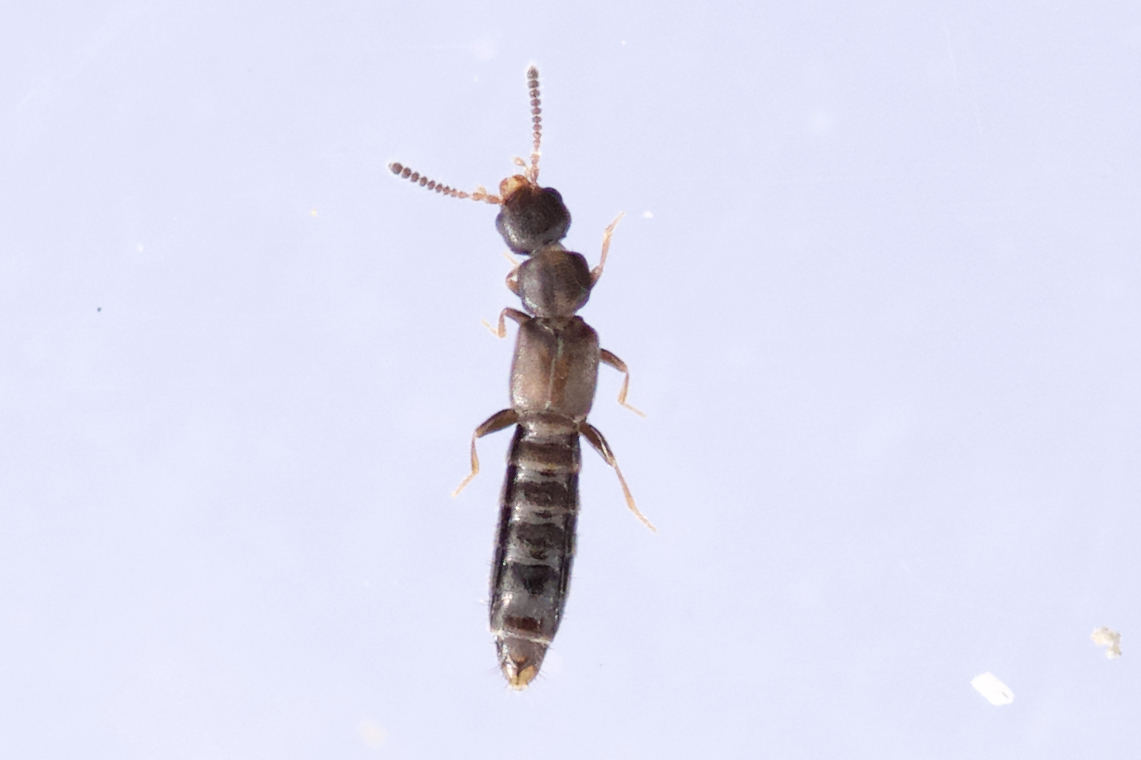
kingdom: Animalia
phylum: Arthropoda
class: Insecta
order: Coleoptera
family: Staphylinidae
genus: Anomognathus
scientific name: Anomognathus cuspidatus
